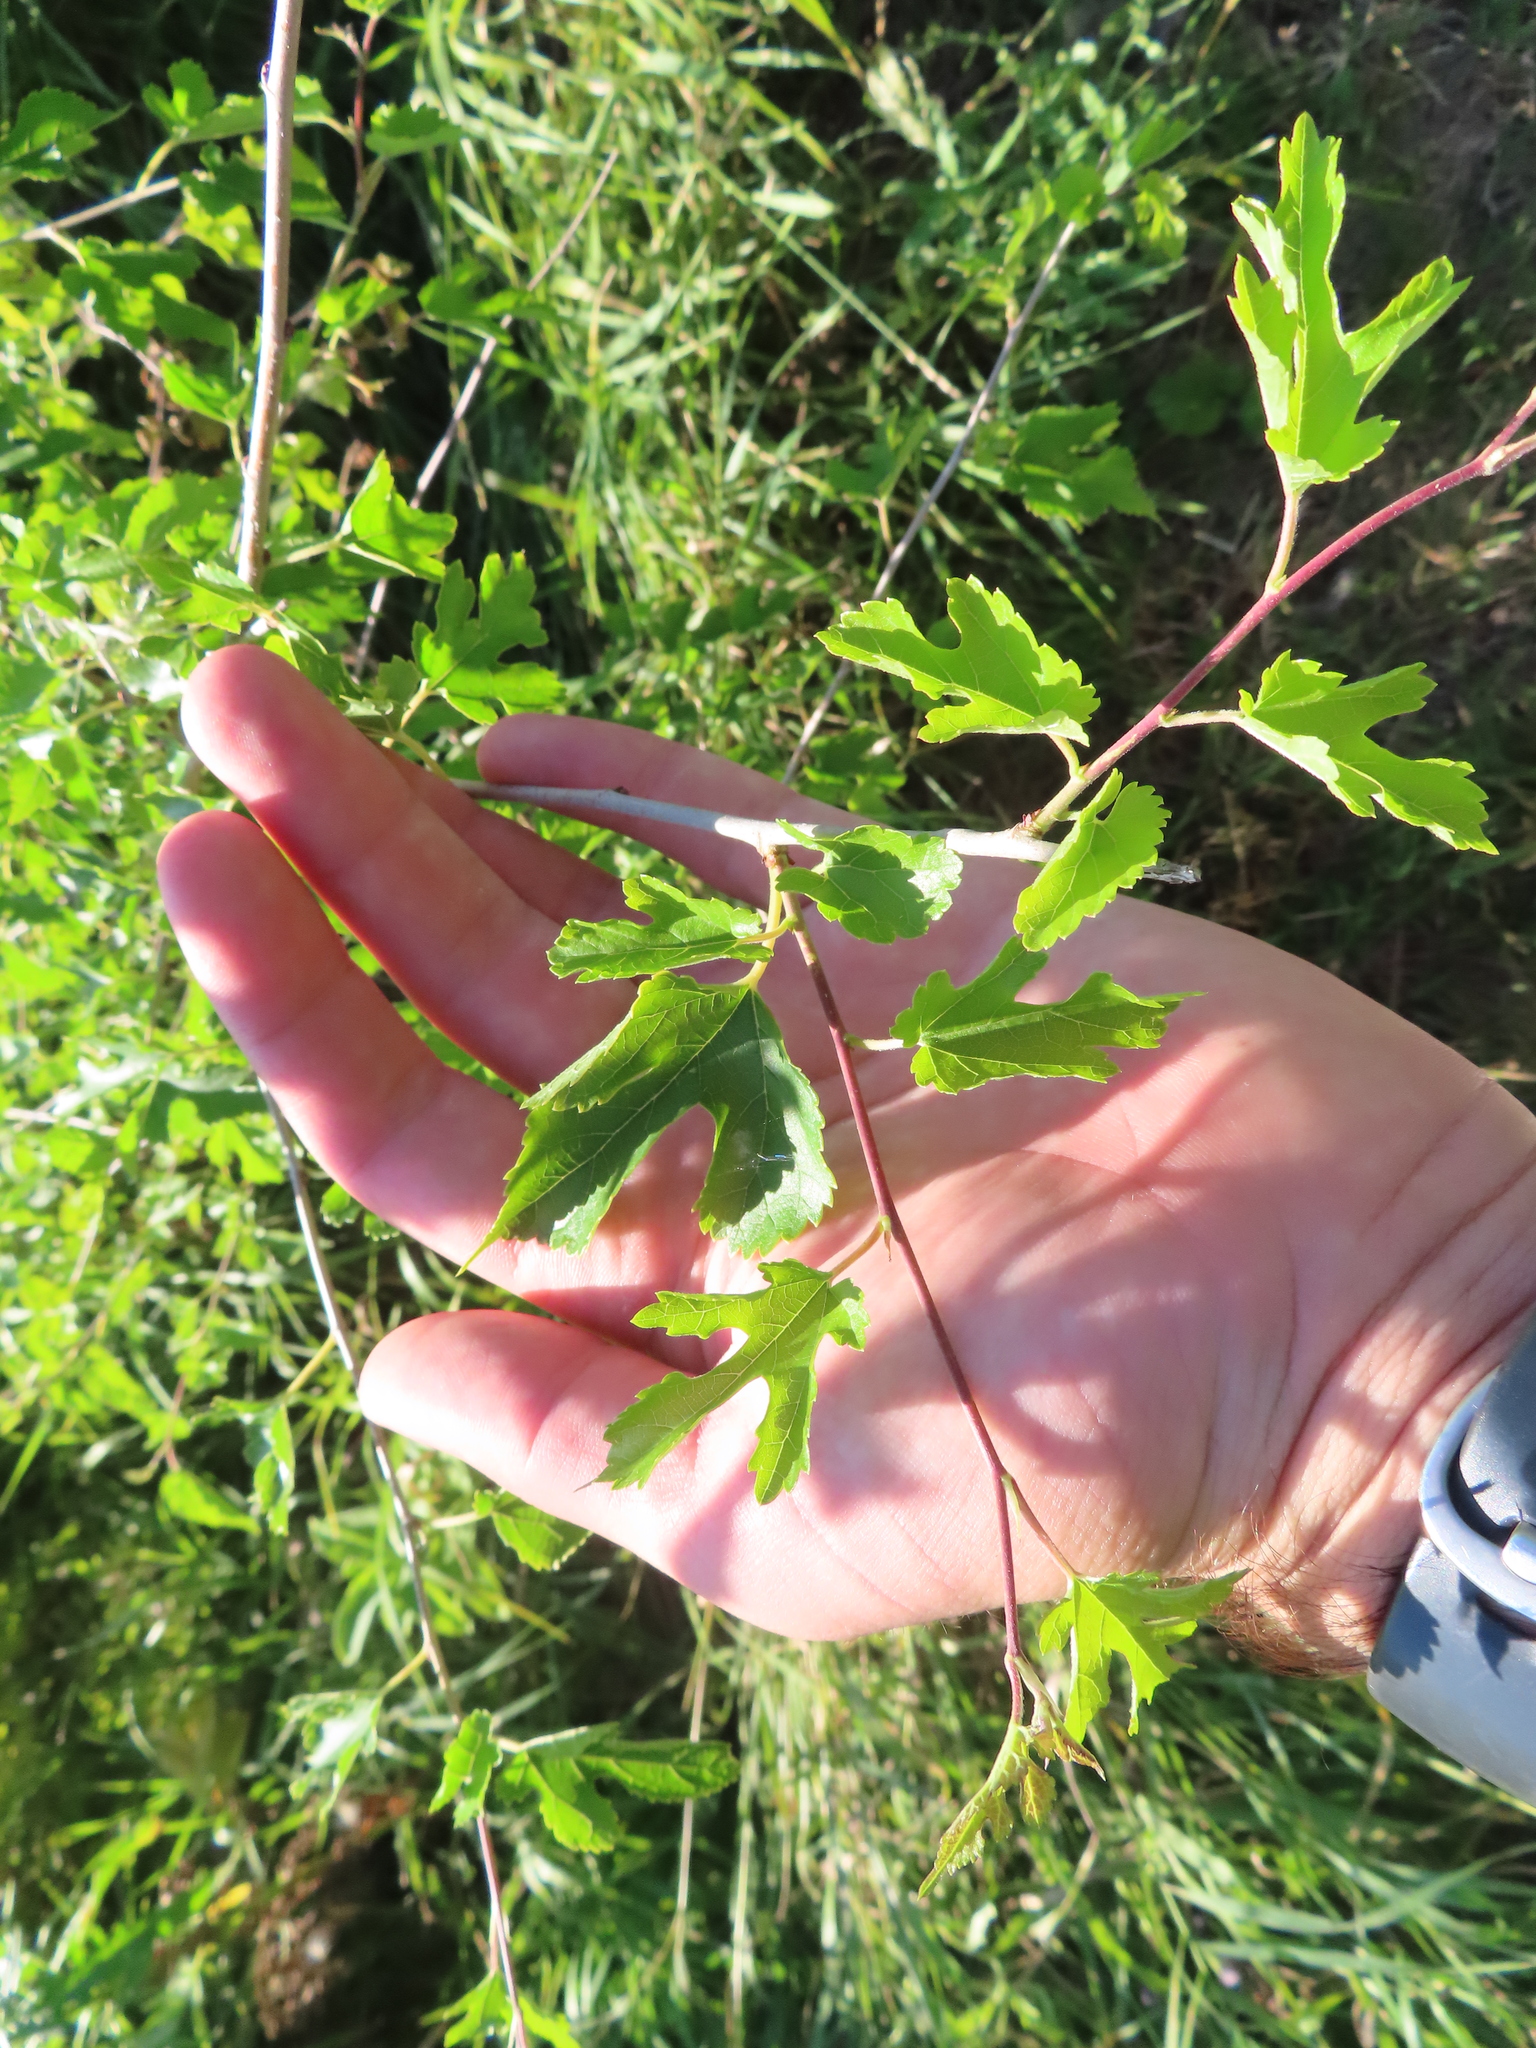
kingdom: Plantae
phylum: Tracheophyta
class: Magnoliopsida
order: Rosales
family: Moraceae
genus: Morus
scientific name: Morus alba
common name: White mulberry
